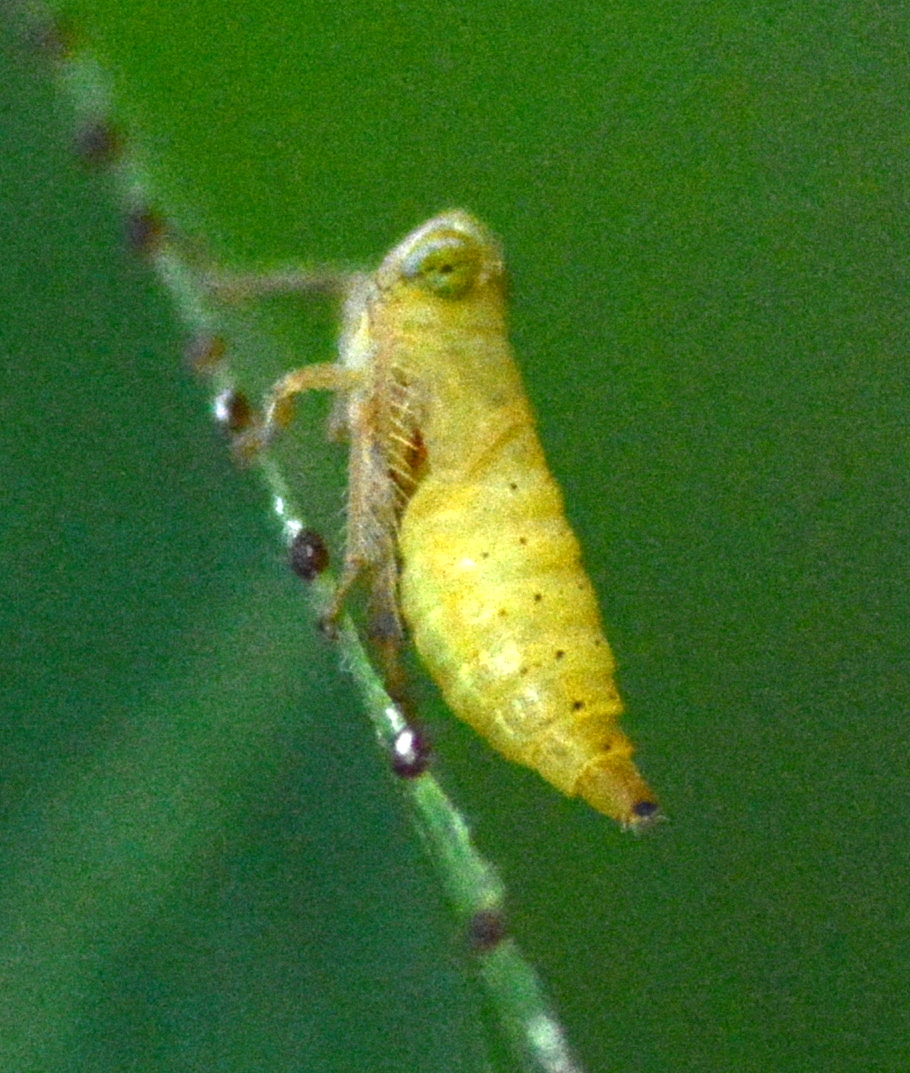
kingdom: Animalia
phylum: Arthropoda
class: Insecta
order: Hemiptera
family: Cicadellidae
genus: Jikradia
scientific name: Jikradia olitoria
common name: Coppery leafhopper
